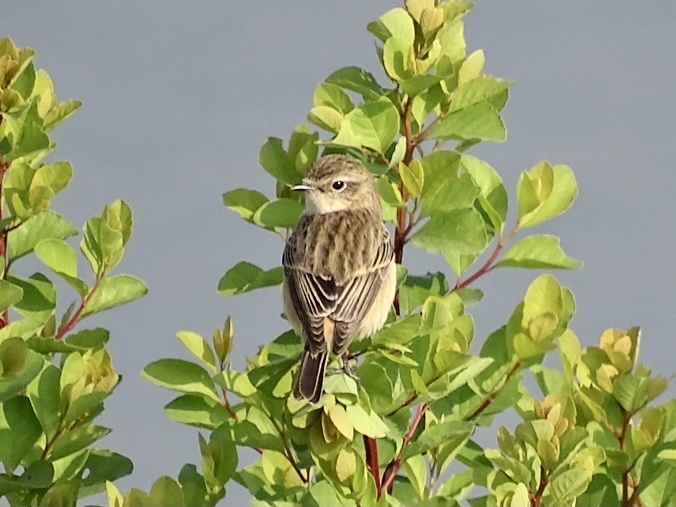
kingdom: Animalia
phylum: Chordata
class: Aves
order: Passeriformes
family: Muscicapidae
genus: Saxicola
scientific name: Saxicola stejnegeri
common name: Stejneger's stonechat
